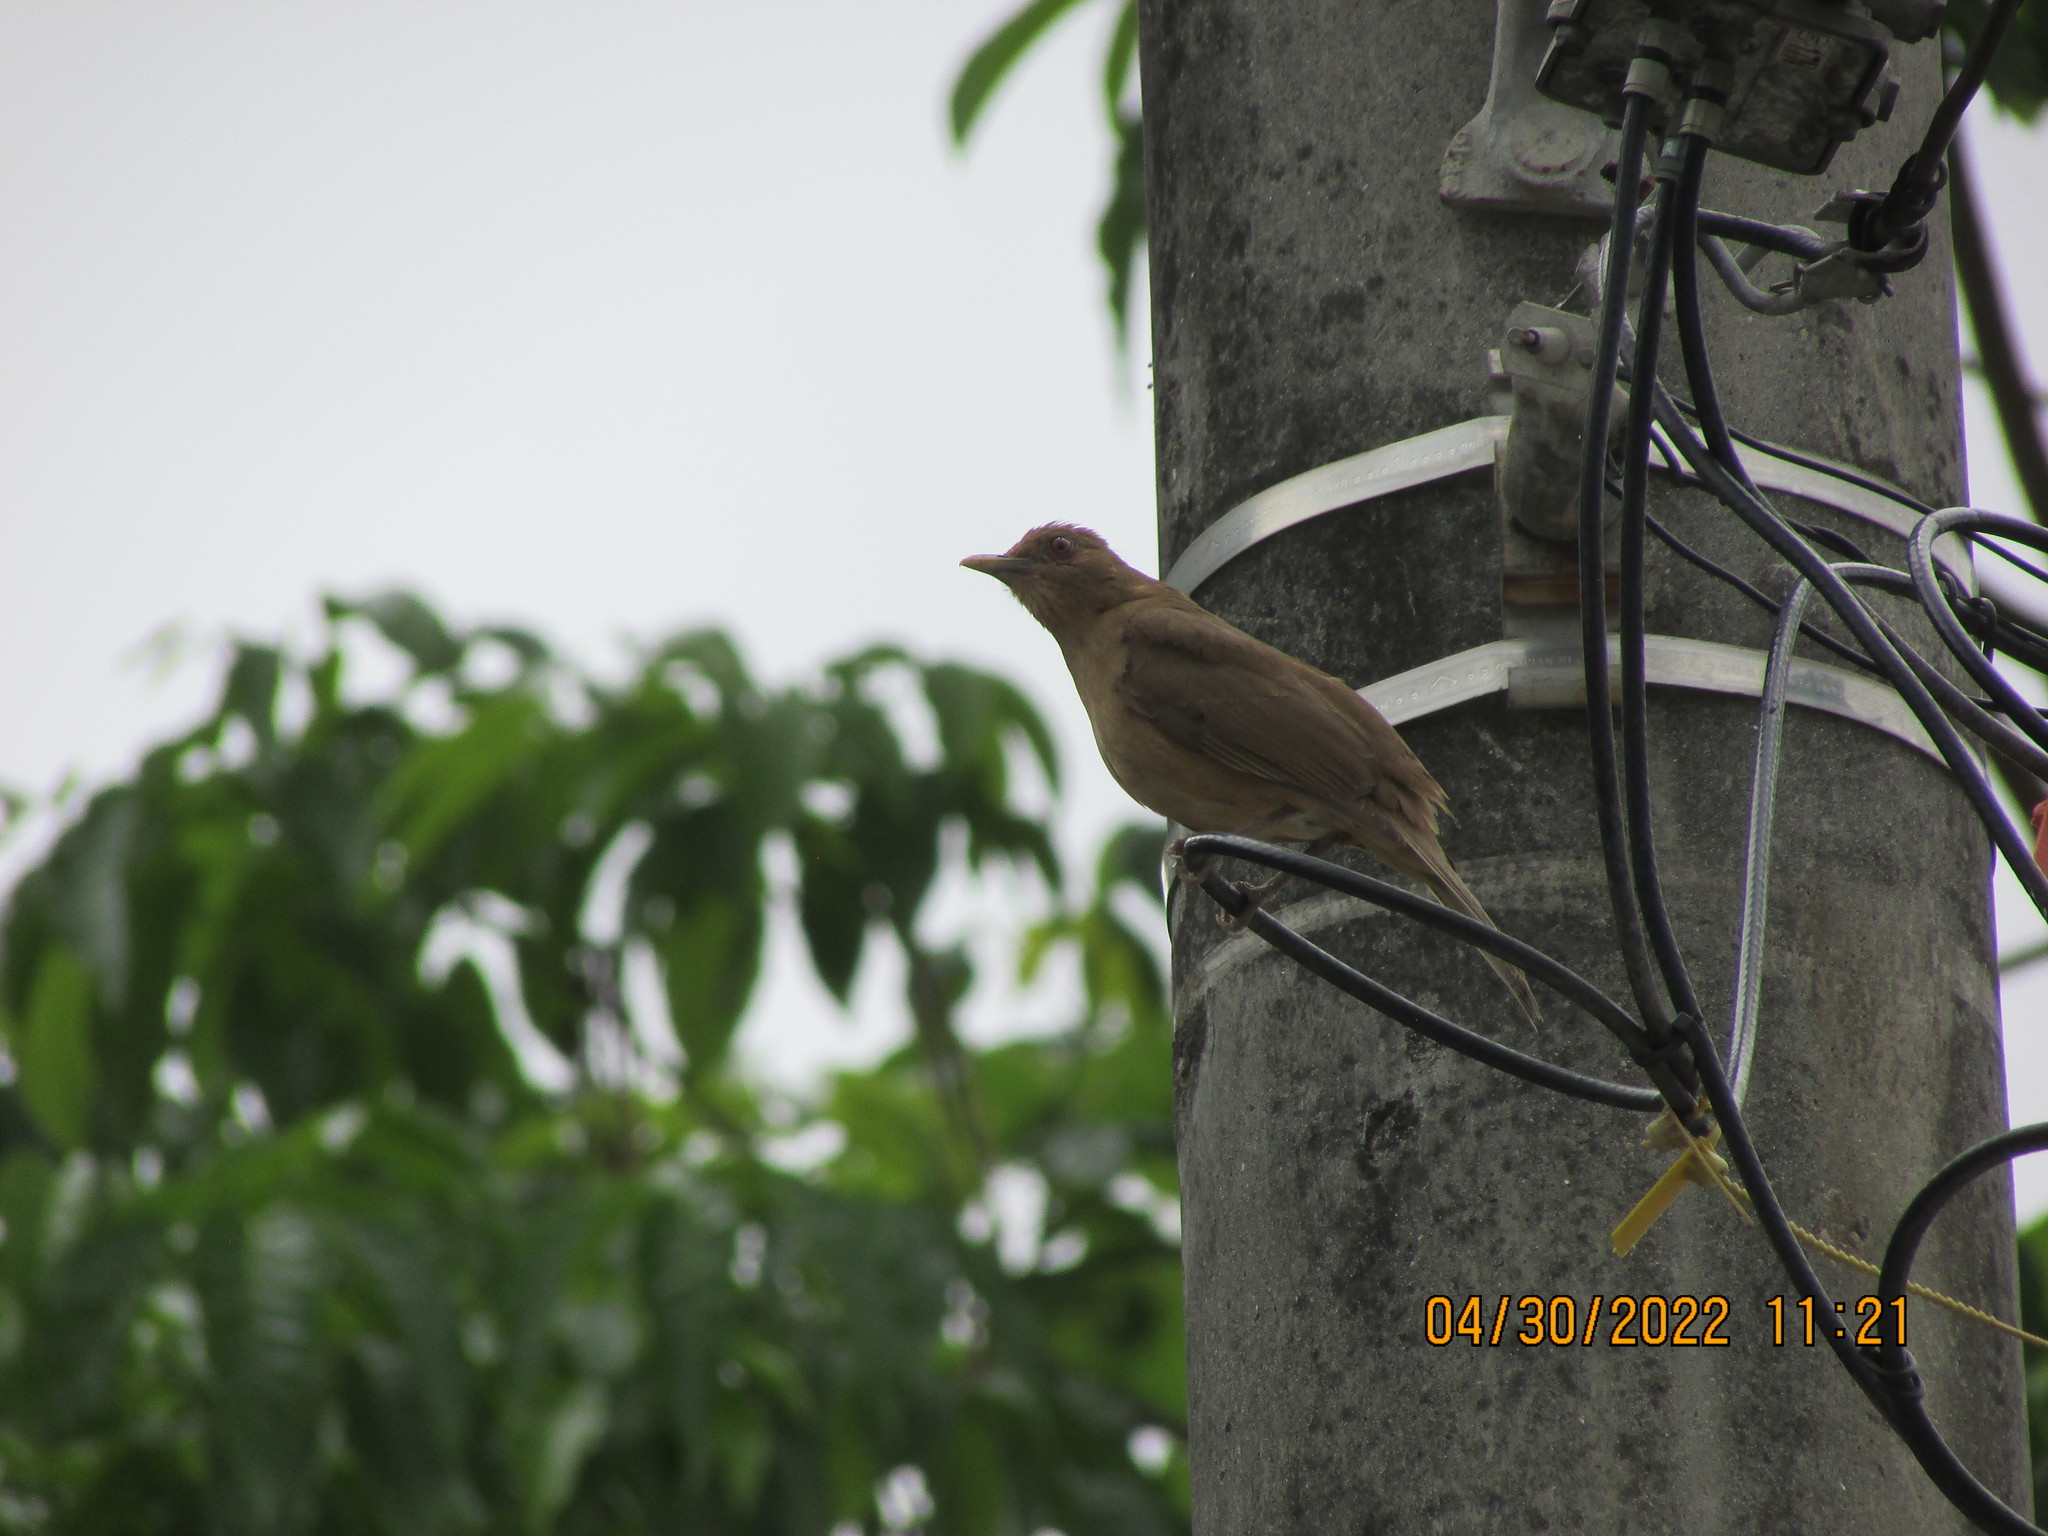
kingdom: Animalia
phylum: Chordata
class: Aves
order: Passeriformes
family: Turdidae
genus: Turdus
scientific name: Turdus grayi
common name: Clay-colored thrush
